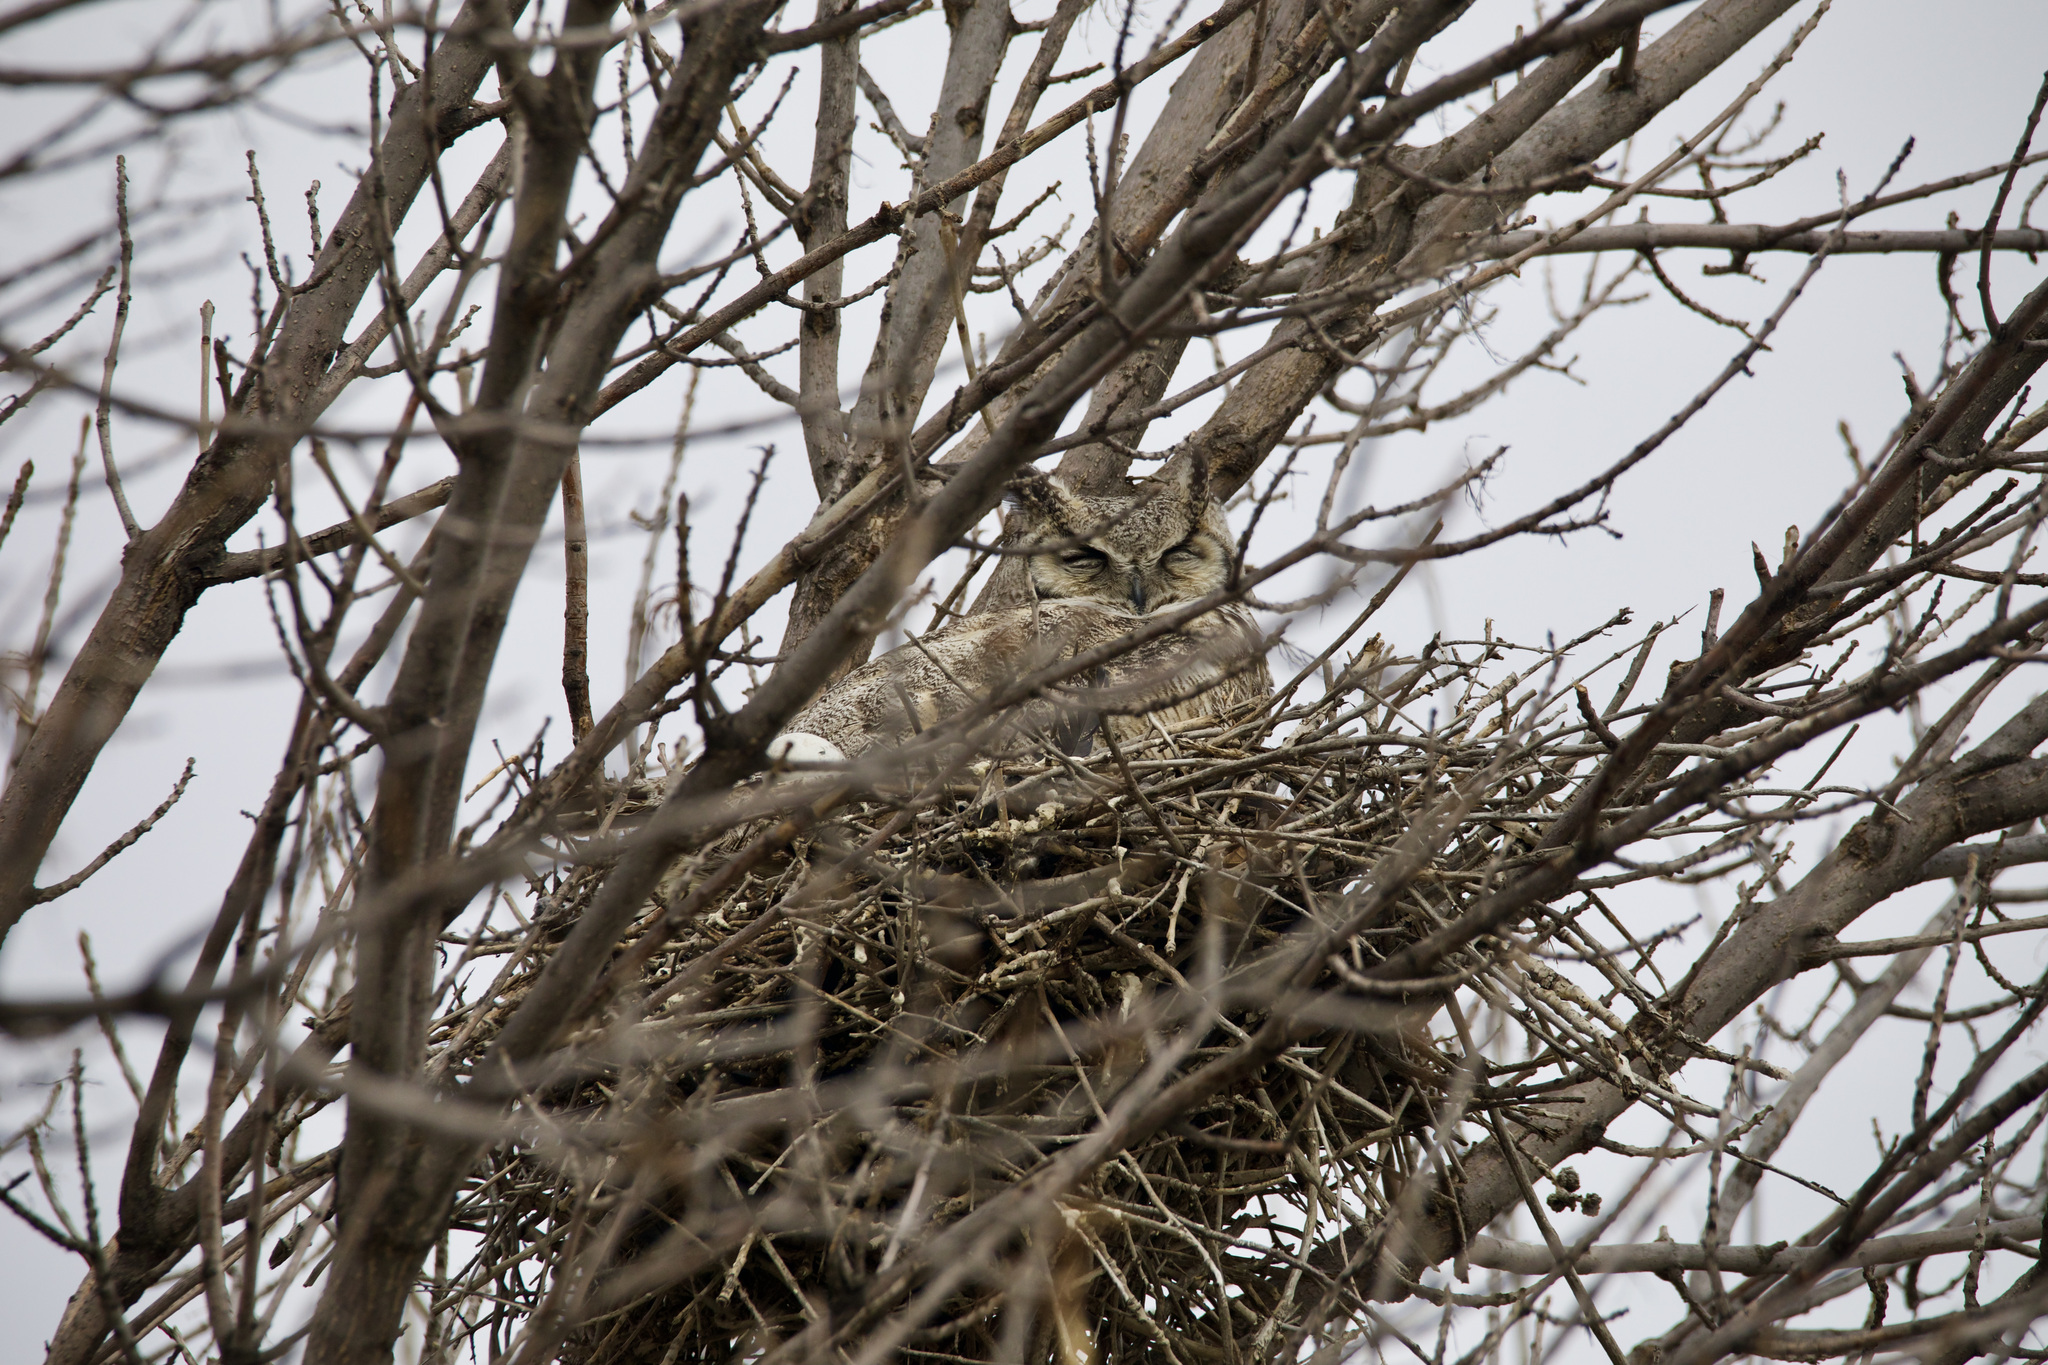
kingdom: Animalia
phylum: Chordata
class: Aves
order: Strigiformes
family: Strigidae
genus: Bubo
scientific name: Bubo virginianus
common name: Great horned owl
